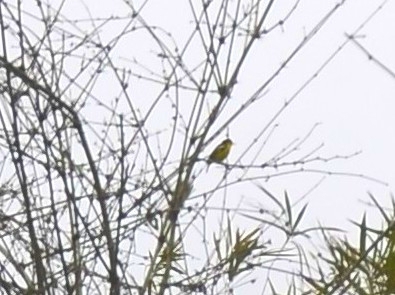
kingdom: Animalia
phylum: Chordata
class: Aves
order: Passeriformes
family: Aegithinidae
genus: Aegithina
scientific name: Aegithina tiphia
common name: Common iora
